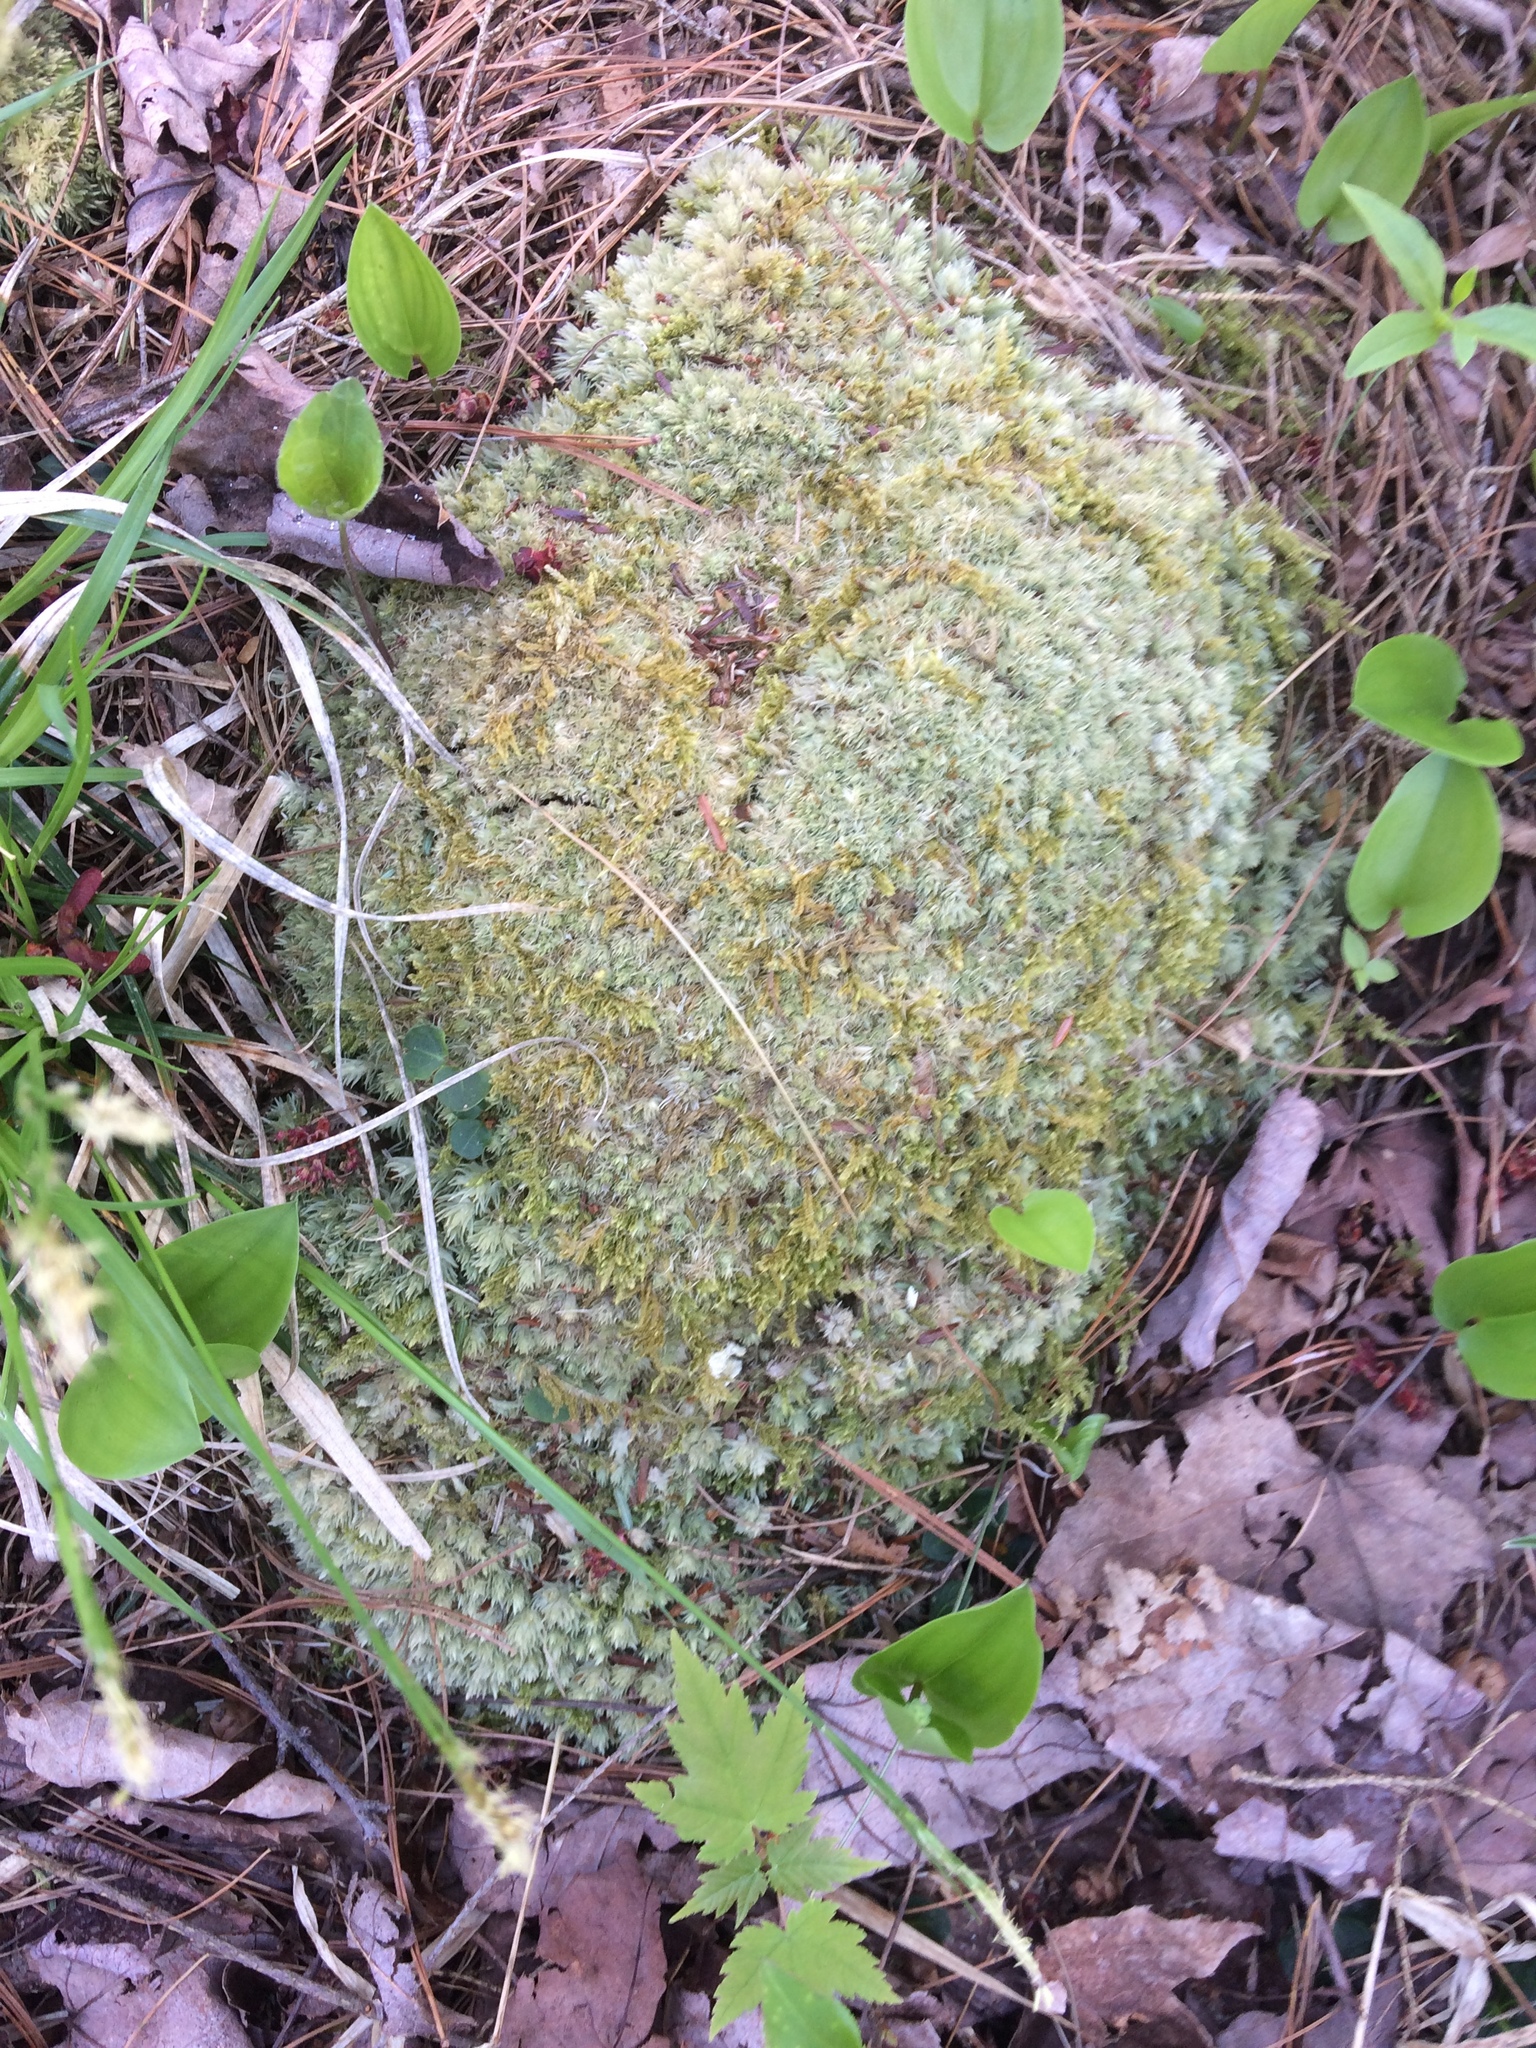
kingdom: Plantae
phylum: Bryophyta
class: Bryopsida
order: Dicranales
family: Leucobryaceae
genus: Leucobryum
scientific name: Leucobryum glaucum
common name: Large white-moss
